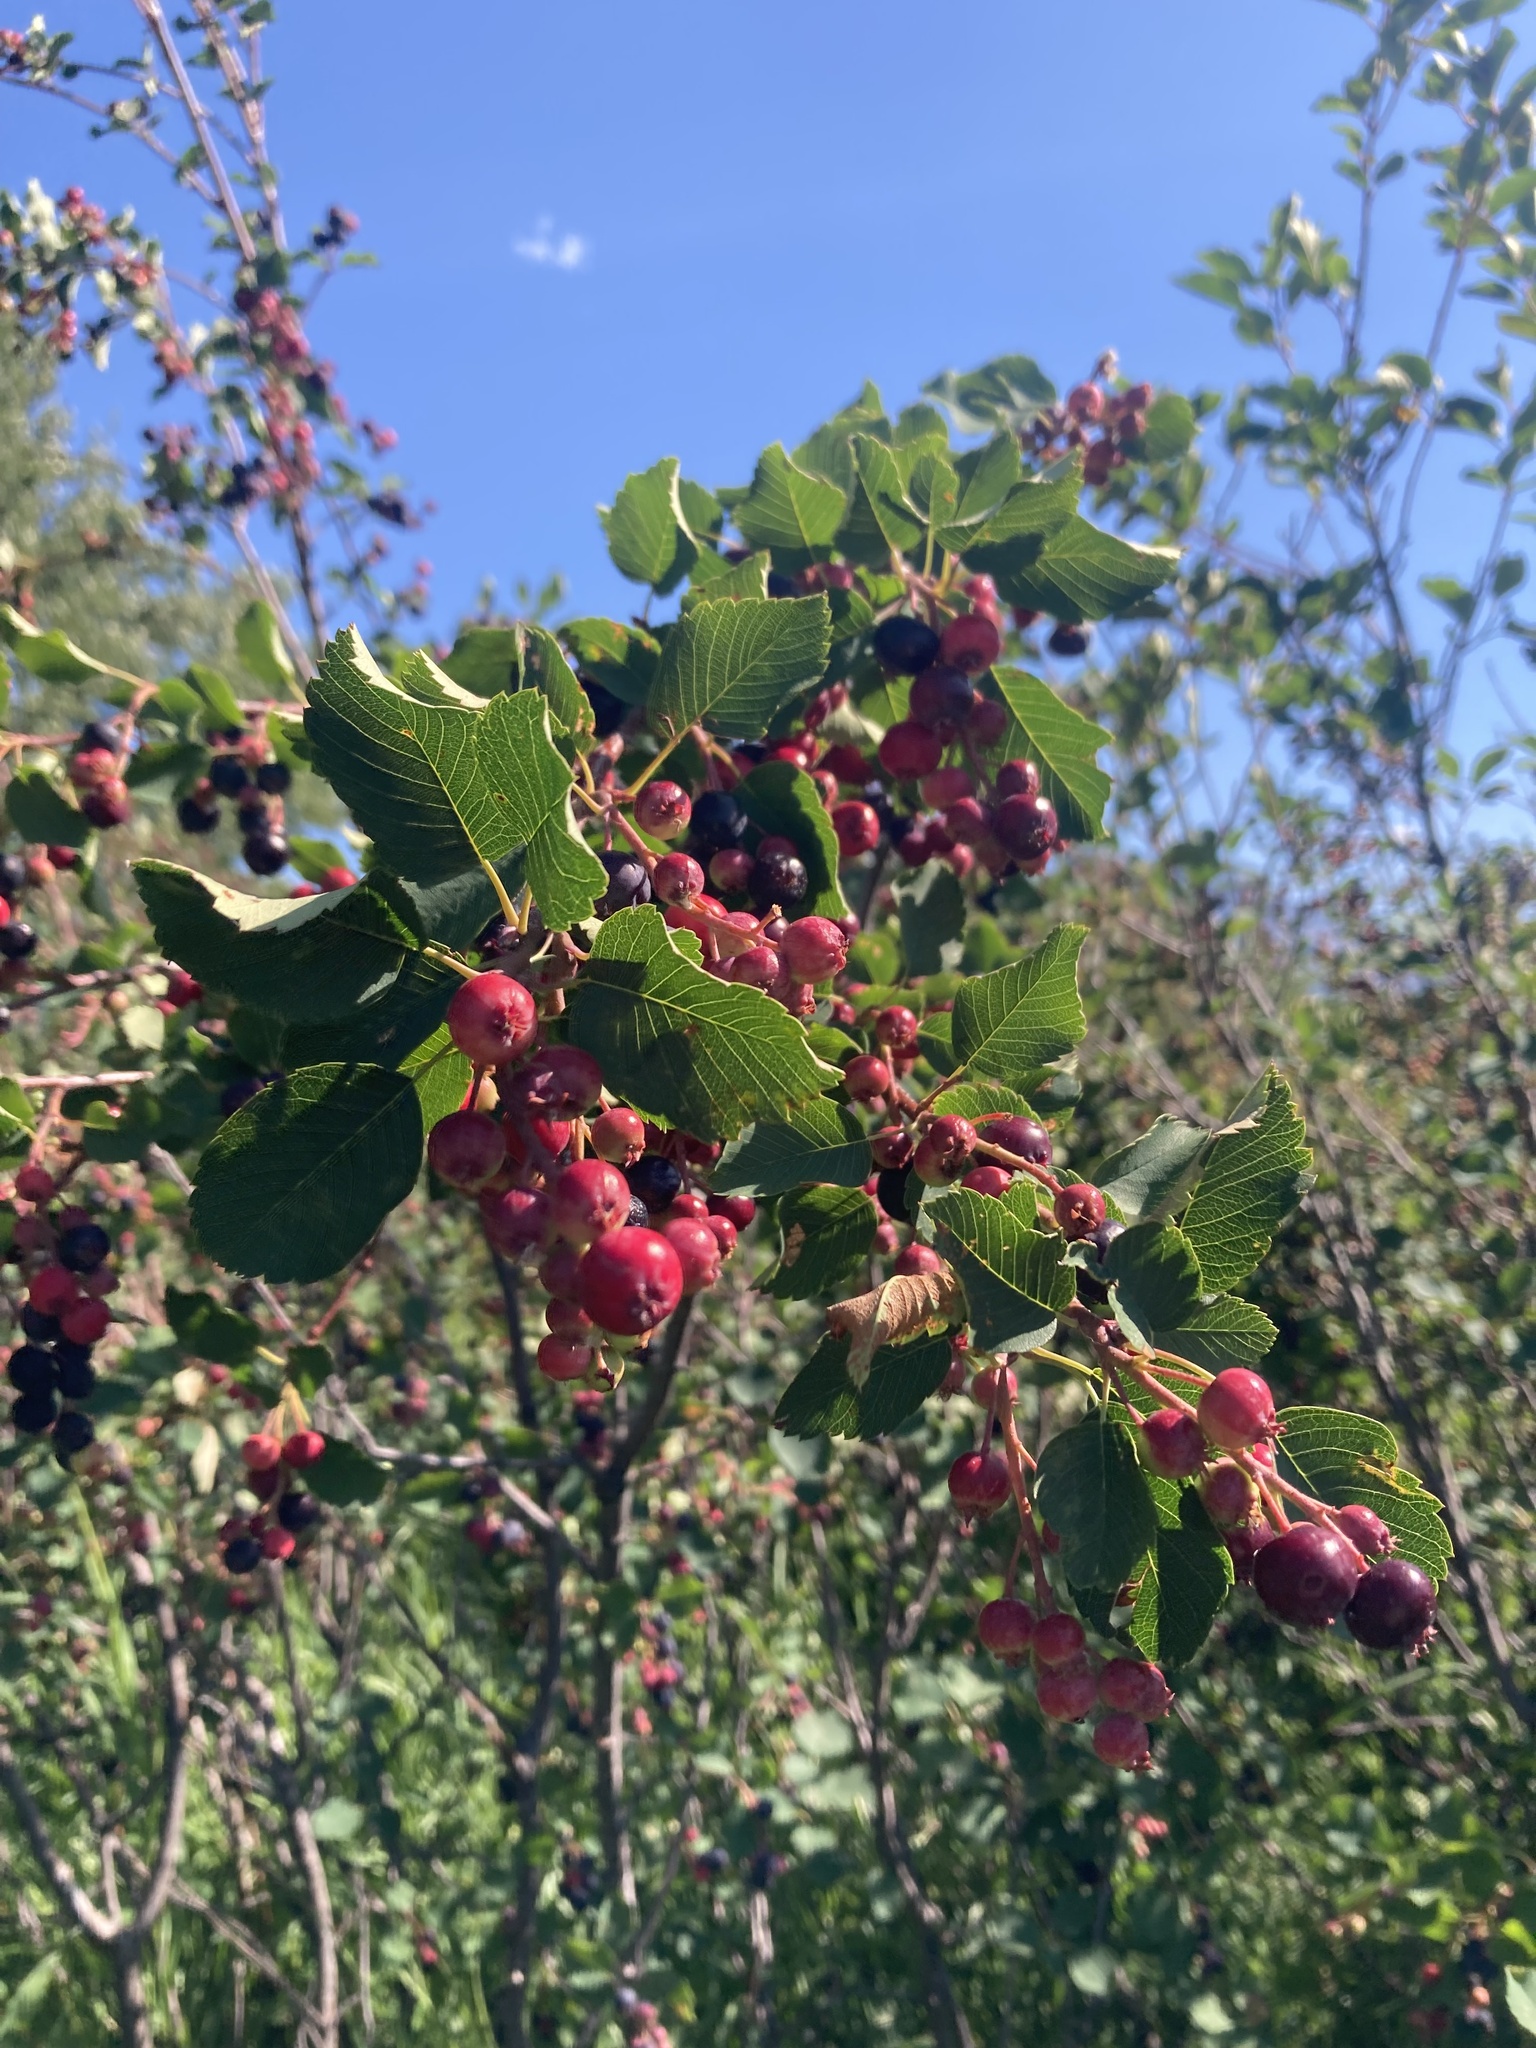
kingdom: Plantae
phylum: Tracheophyta
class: Magnoliopsida
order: Rosales
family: Rosaceae
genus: Amelanchier
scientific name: Amelanchier alnifolia
